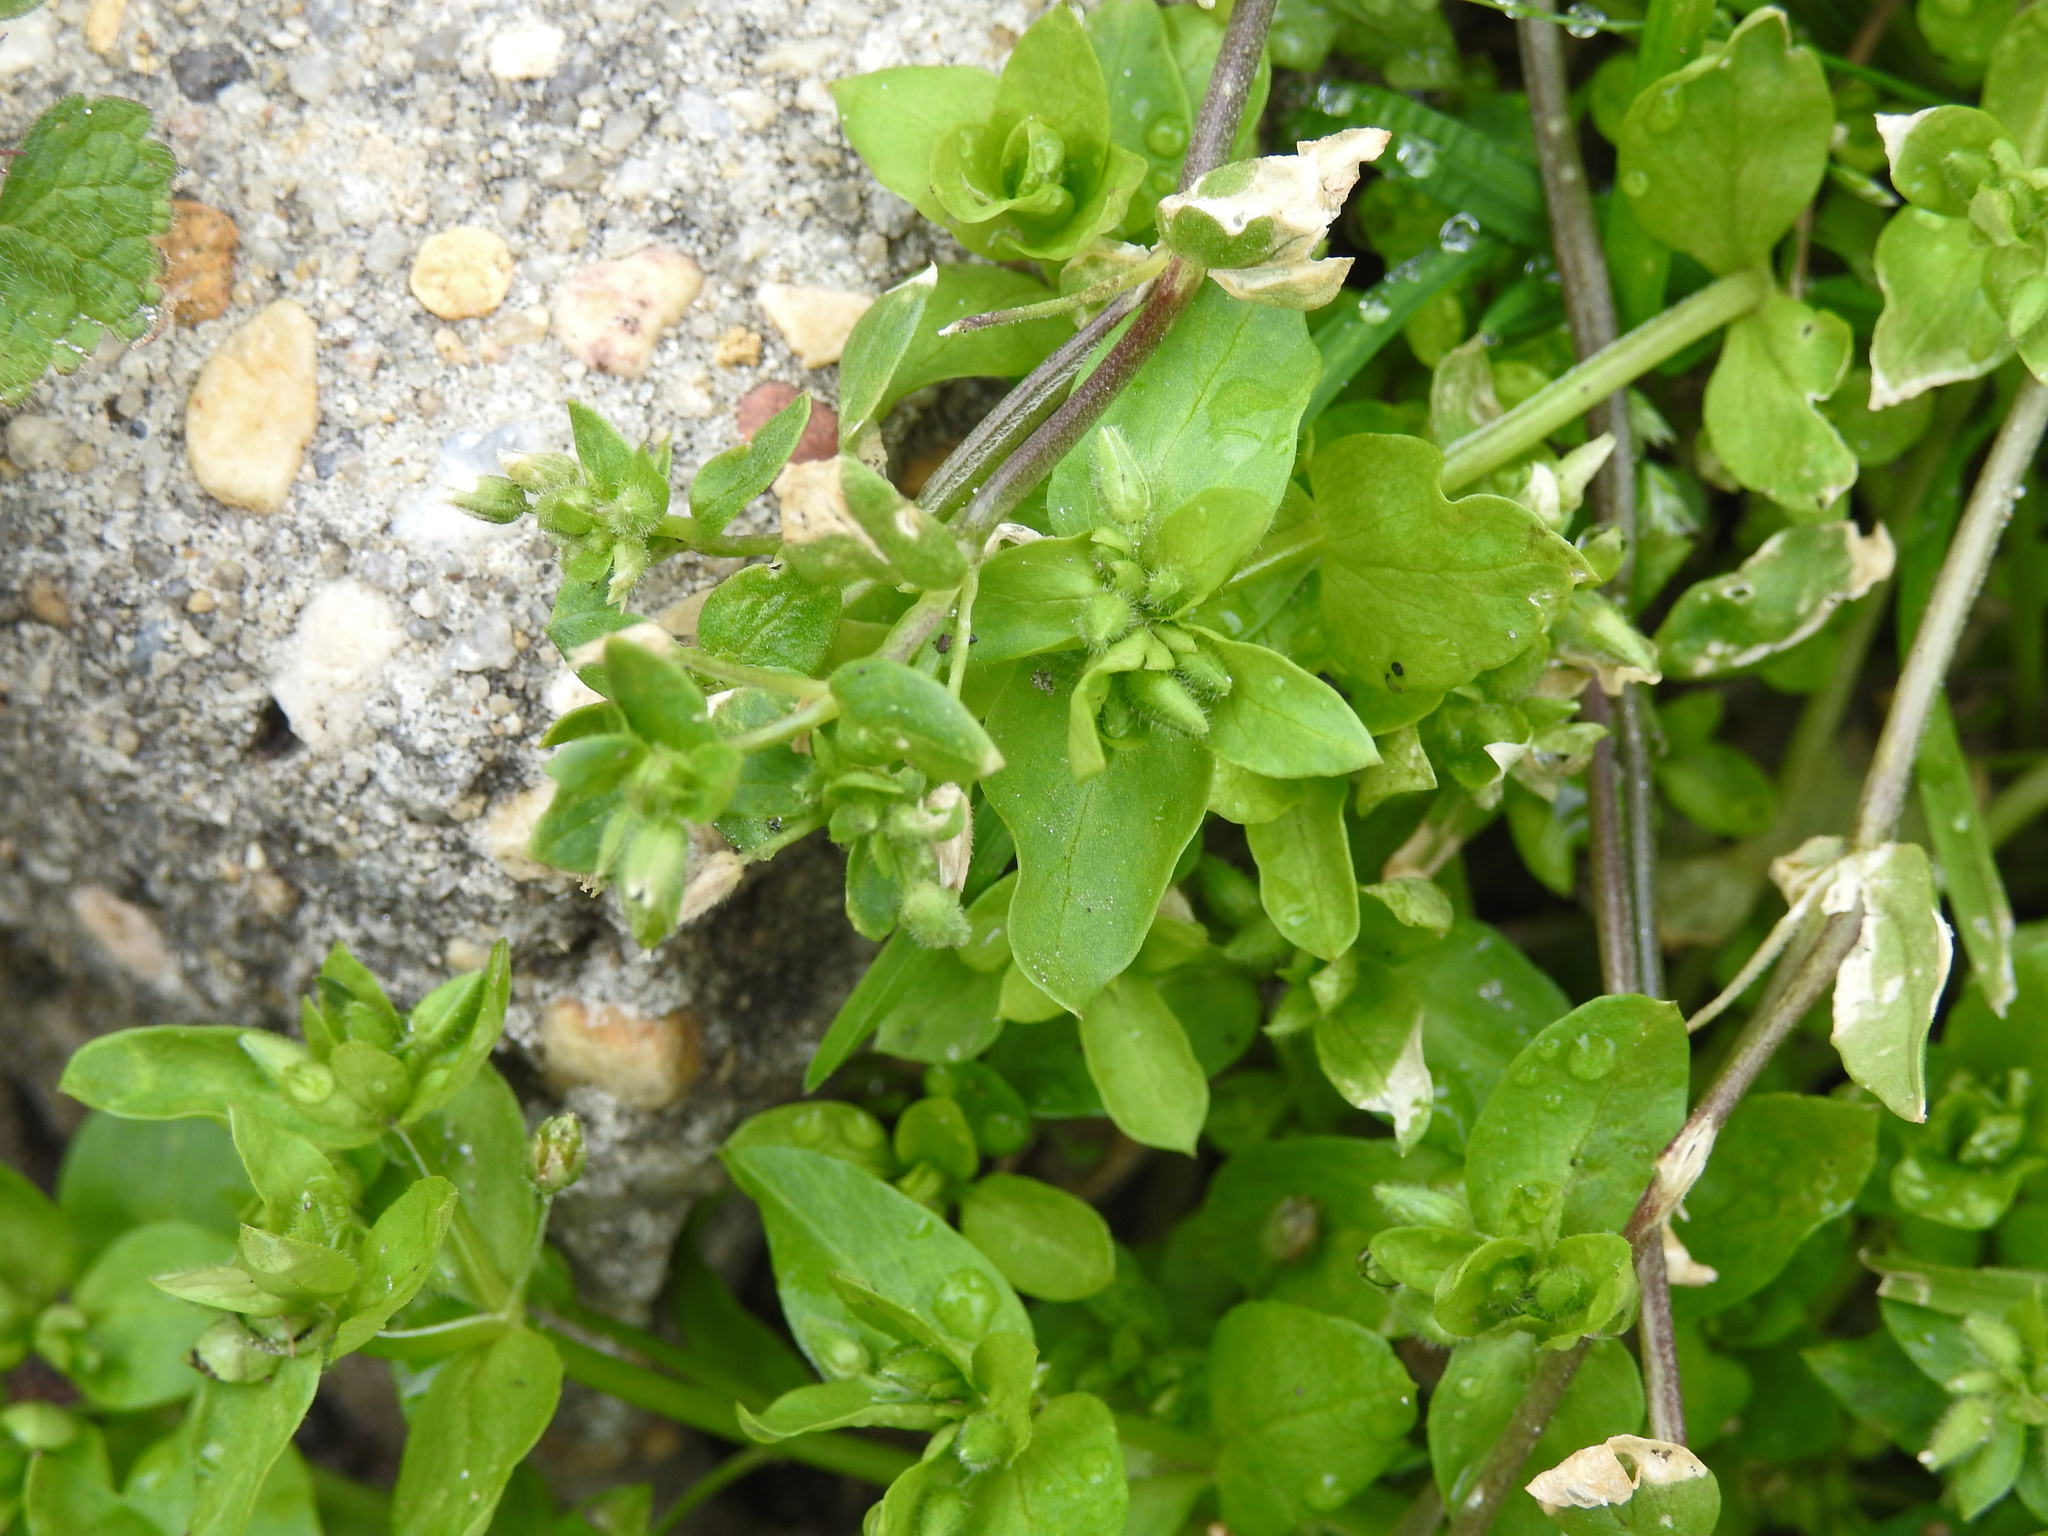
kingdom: Plantae
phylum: Tracheophyta
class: Magnoliopsida
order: Caryophyllales
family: Caryophyllaceae
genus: Stellaria
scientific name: Stellaria media
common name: Common chickweed
